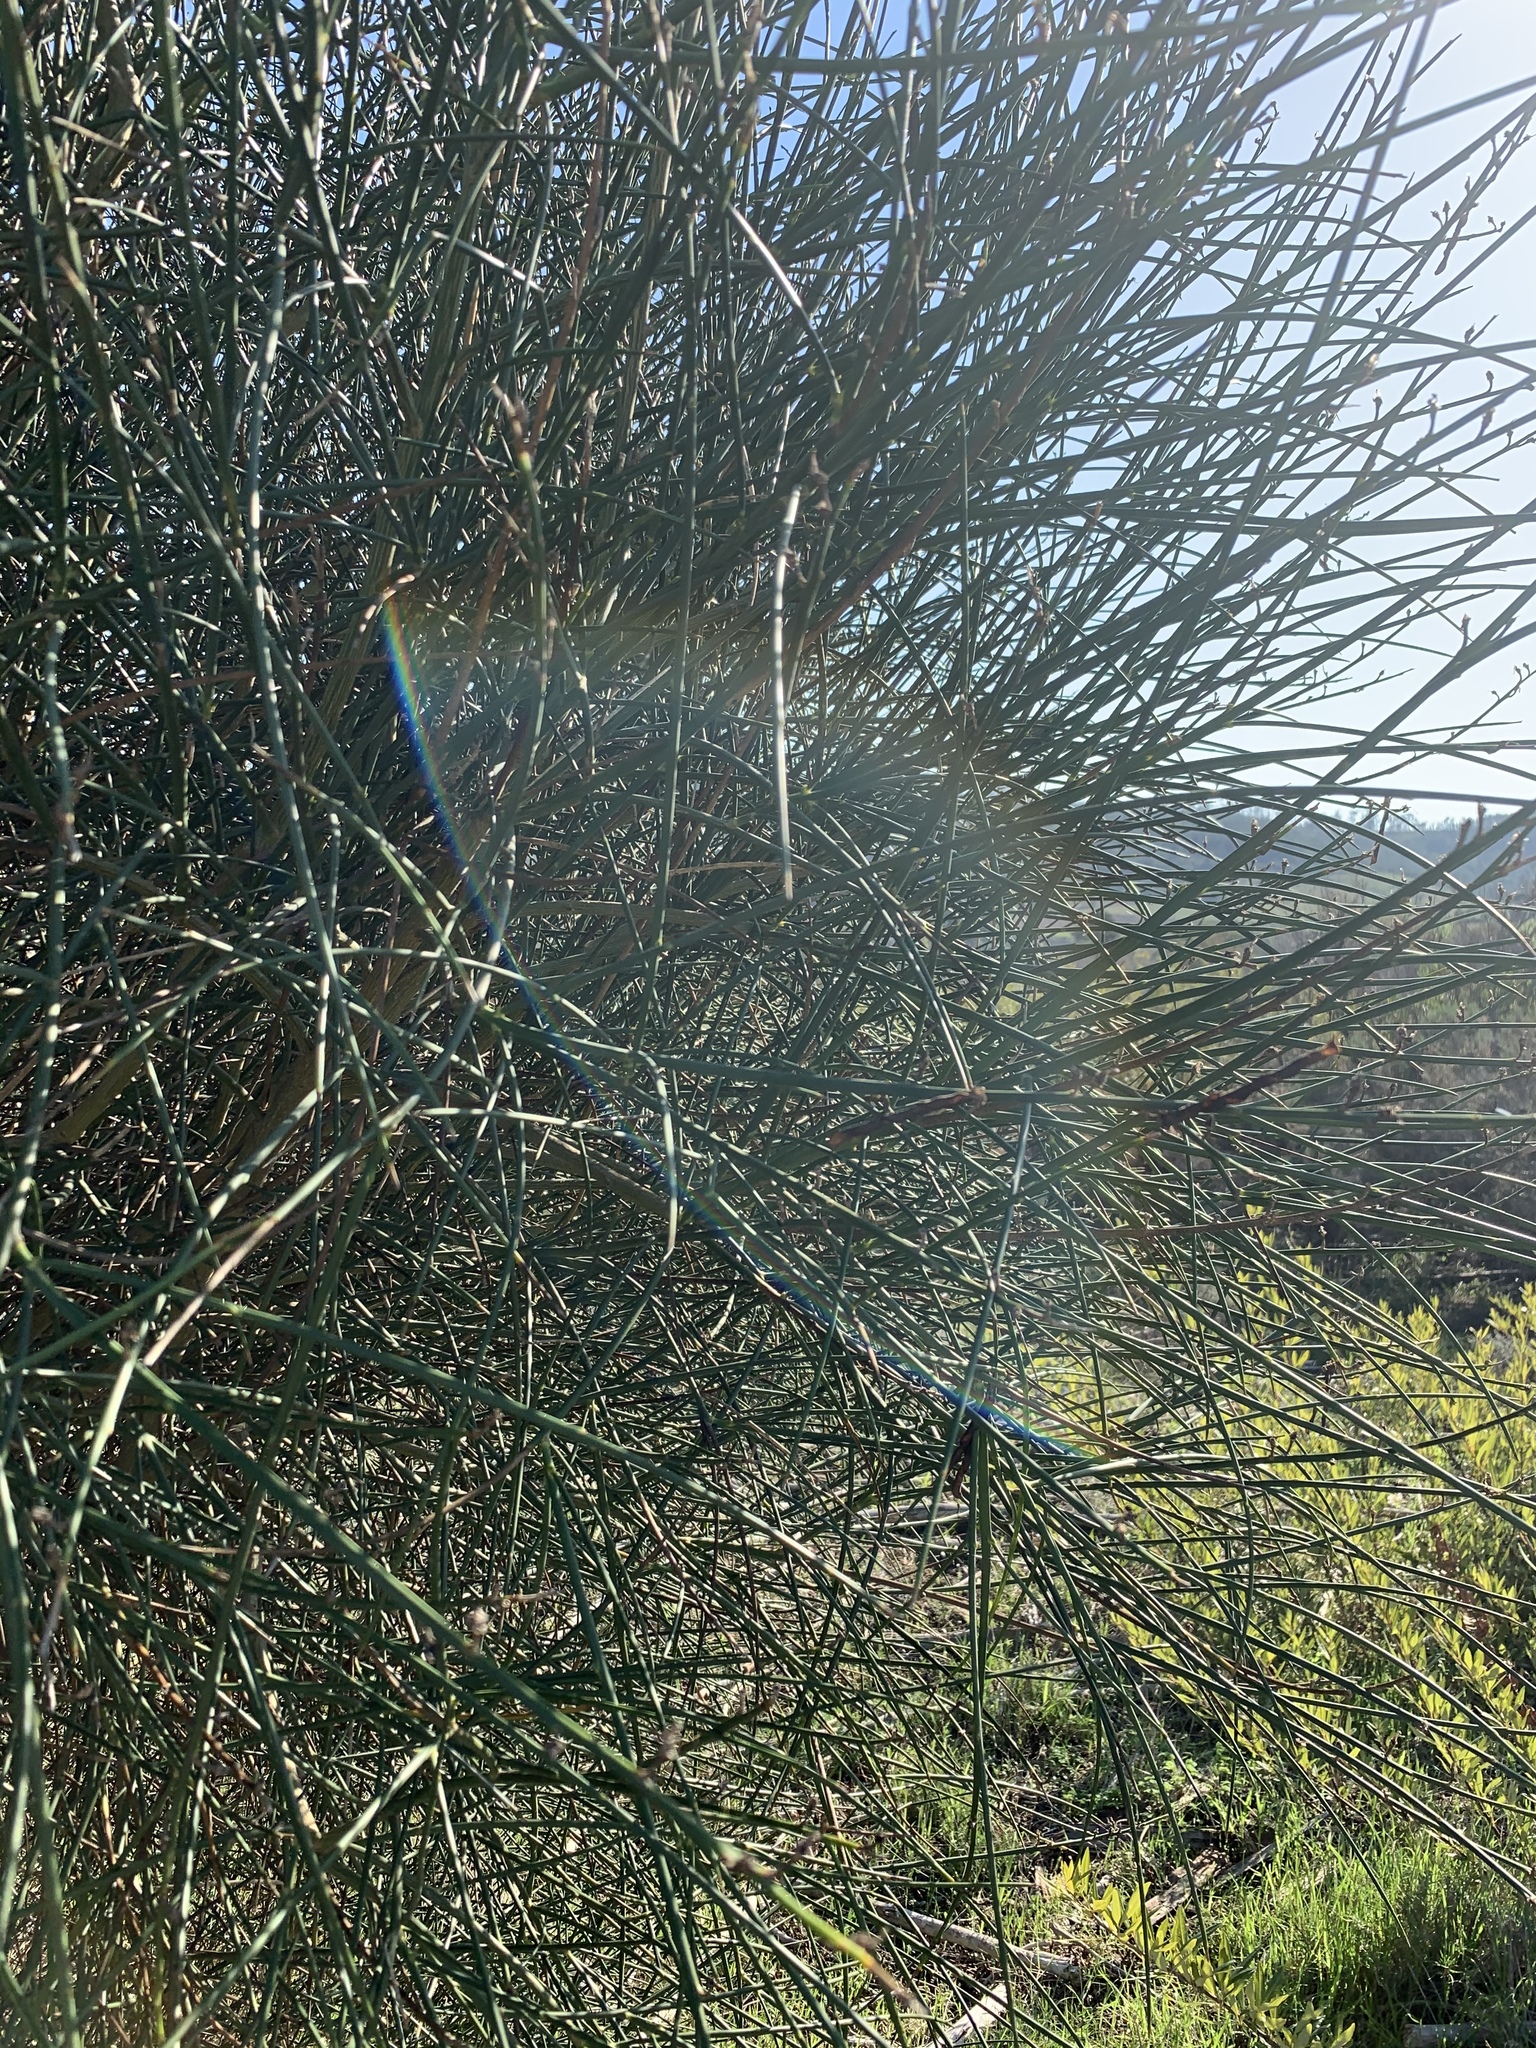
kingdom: Plantae
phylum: Tracheophyta
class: Magnoliopsida
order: Fabales
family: Fabaceae
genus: Spartium
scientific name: Spartium junceum
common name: Spanish broom
